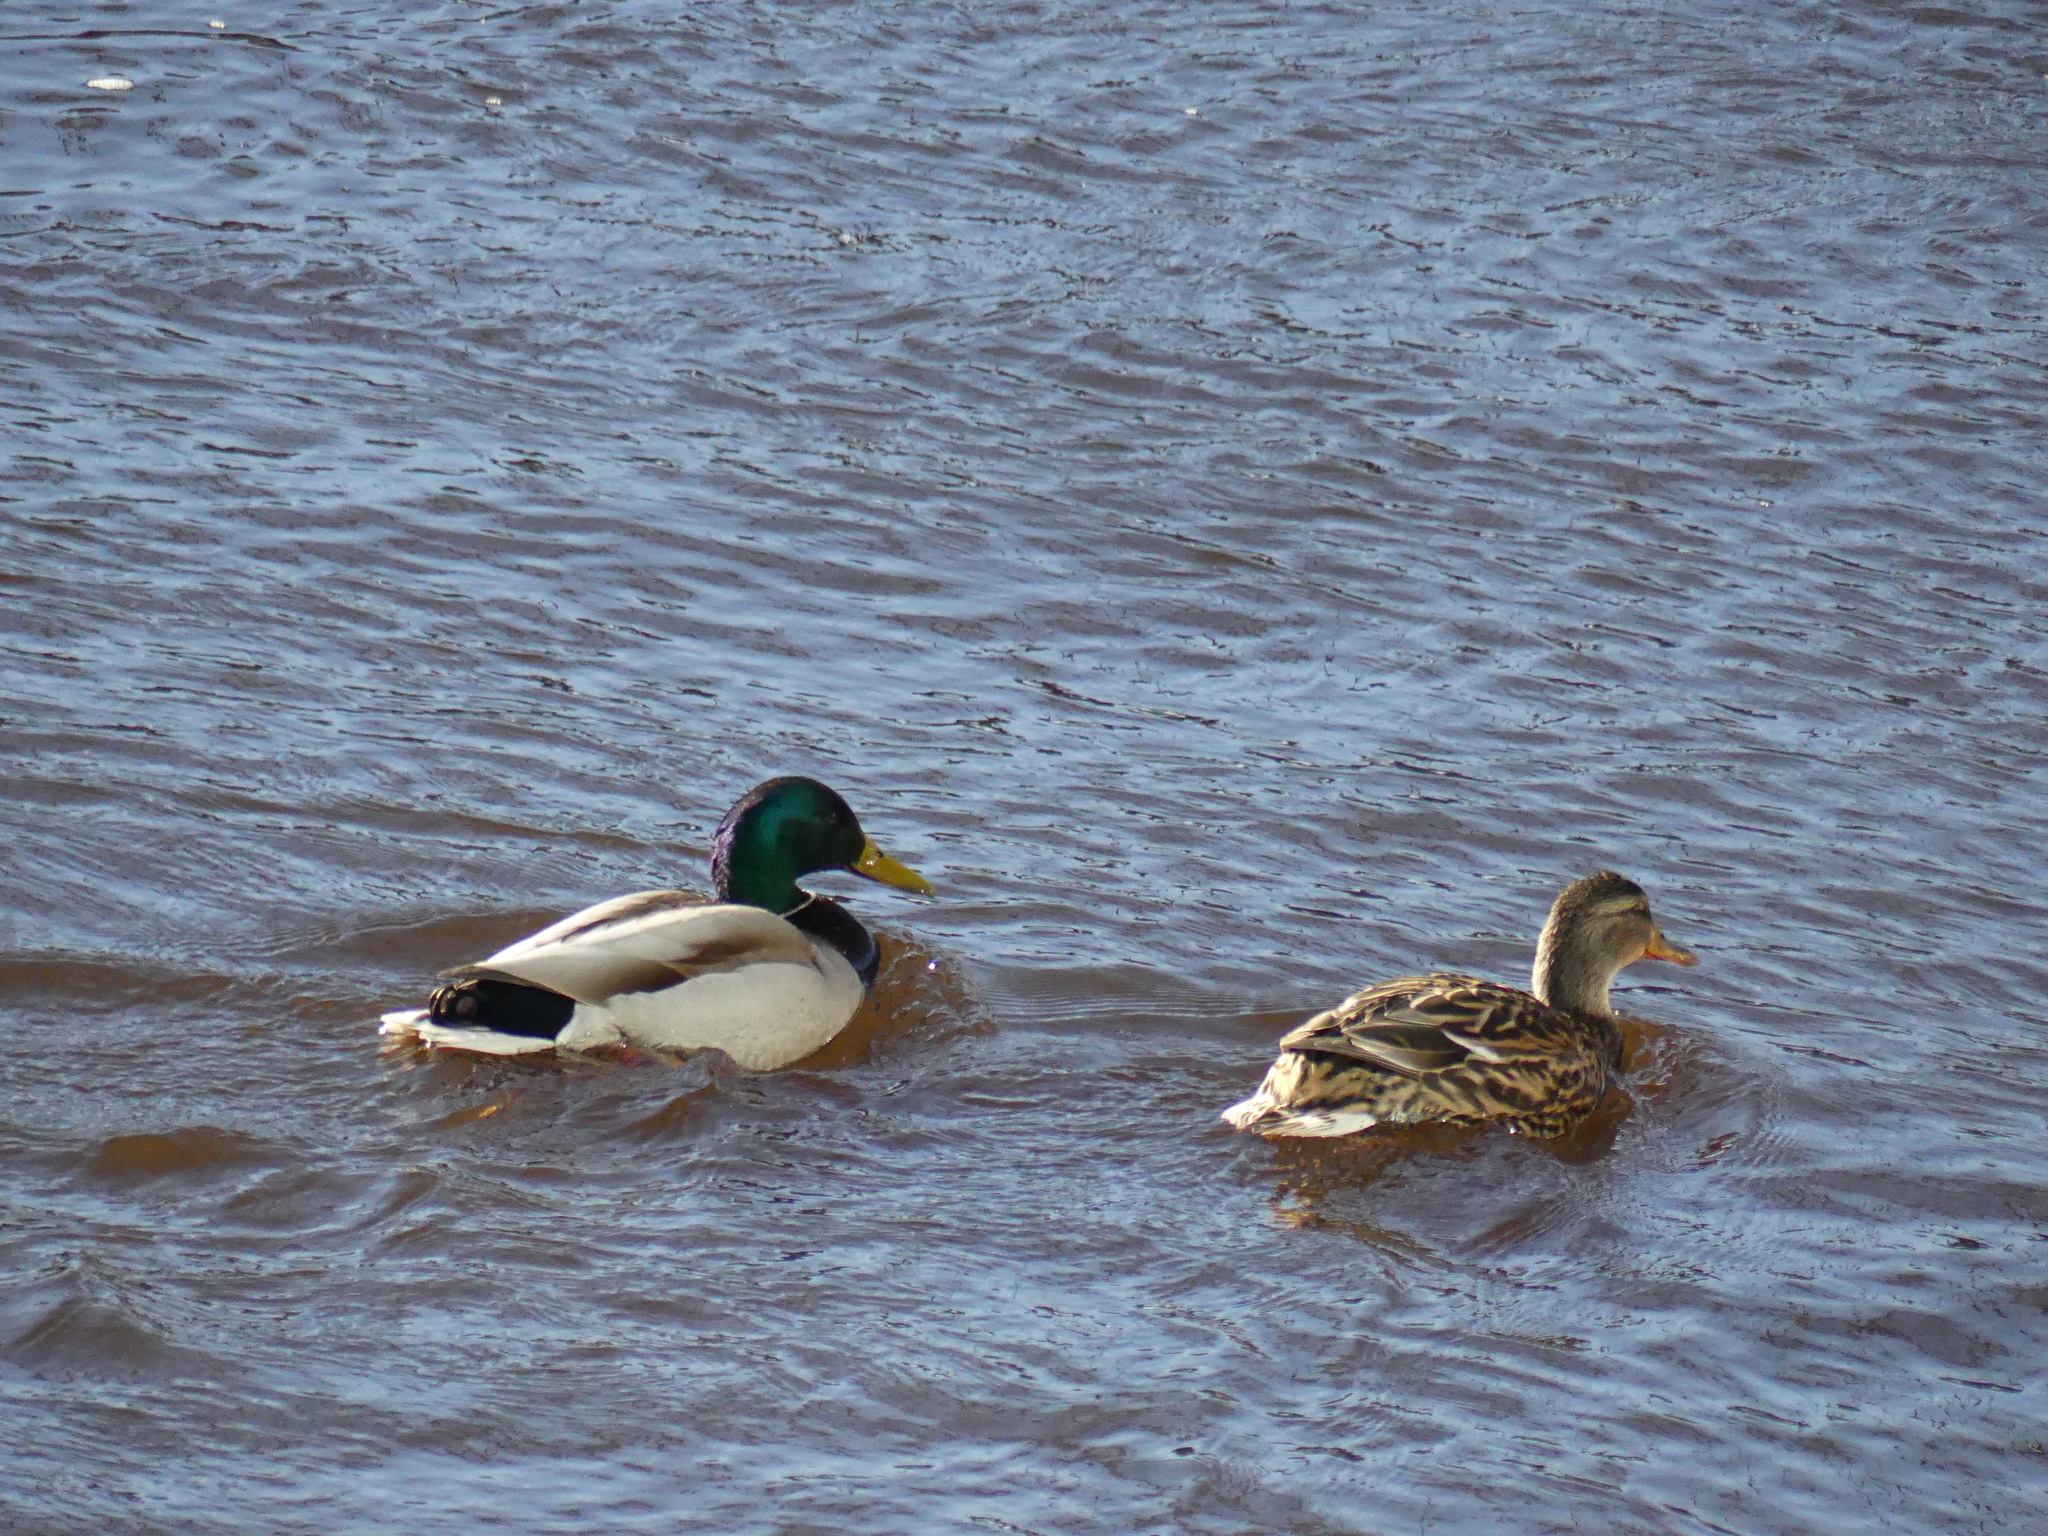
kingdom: Animalia
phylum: Chordata
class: Aves
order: Anseriformes
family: Anatidae
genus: Anas
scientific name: Anas platyrhynchos
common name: Mallard
